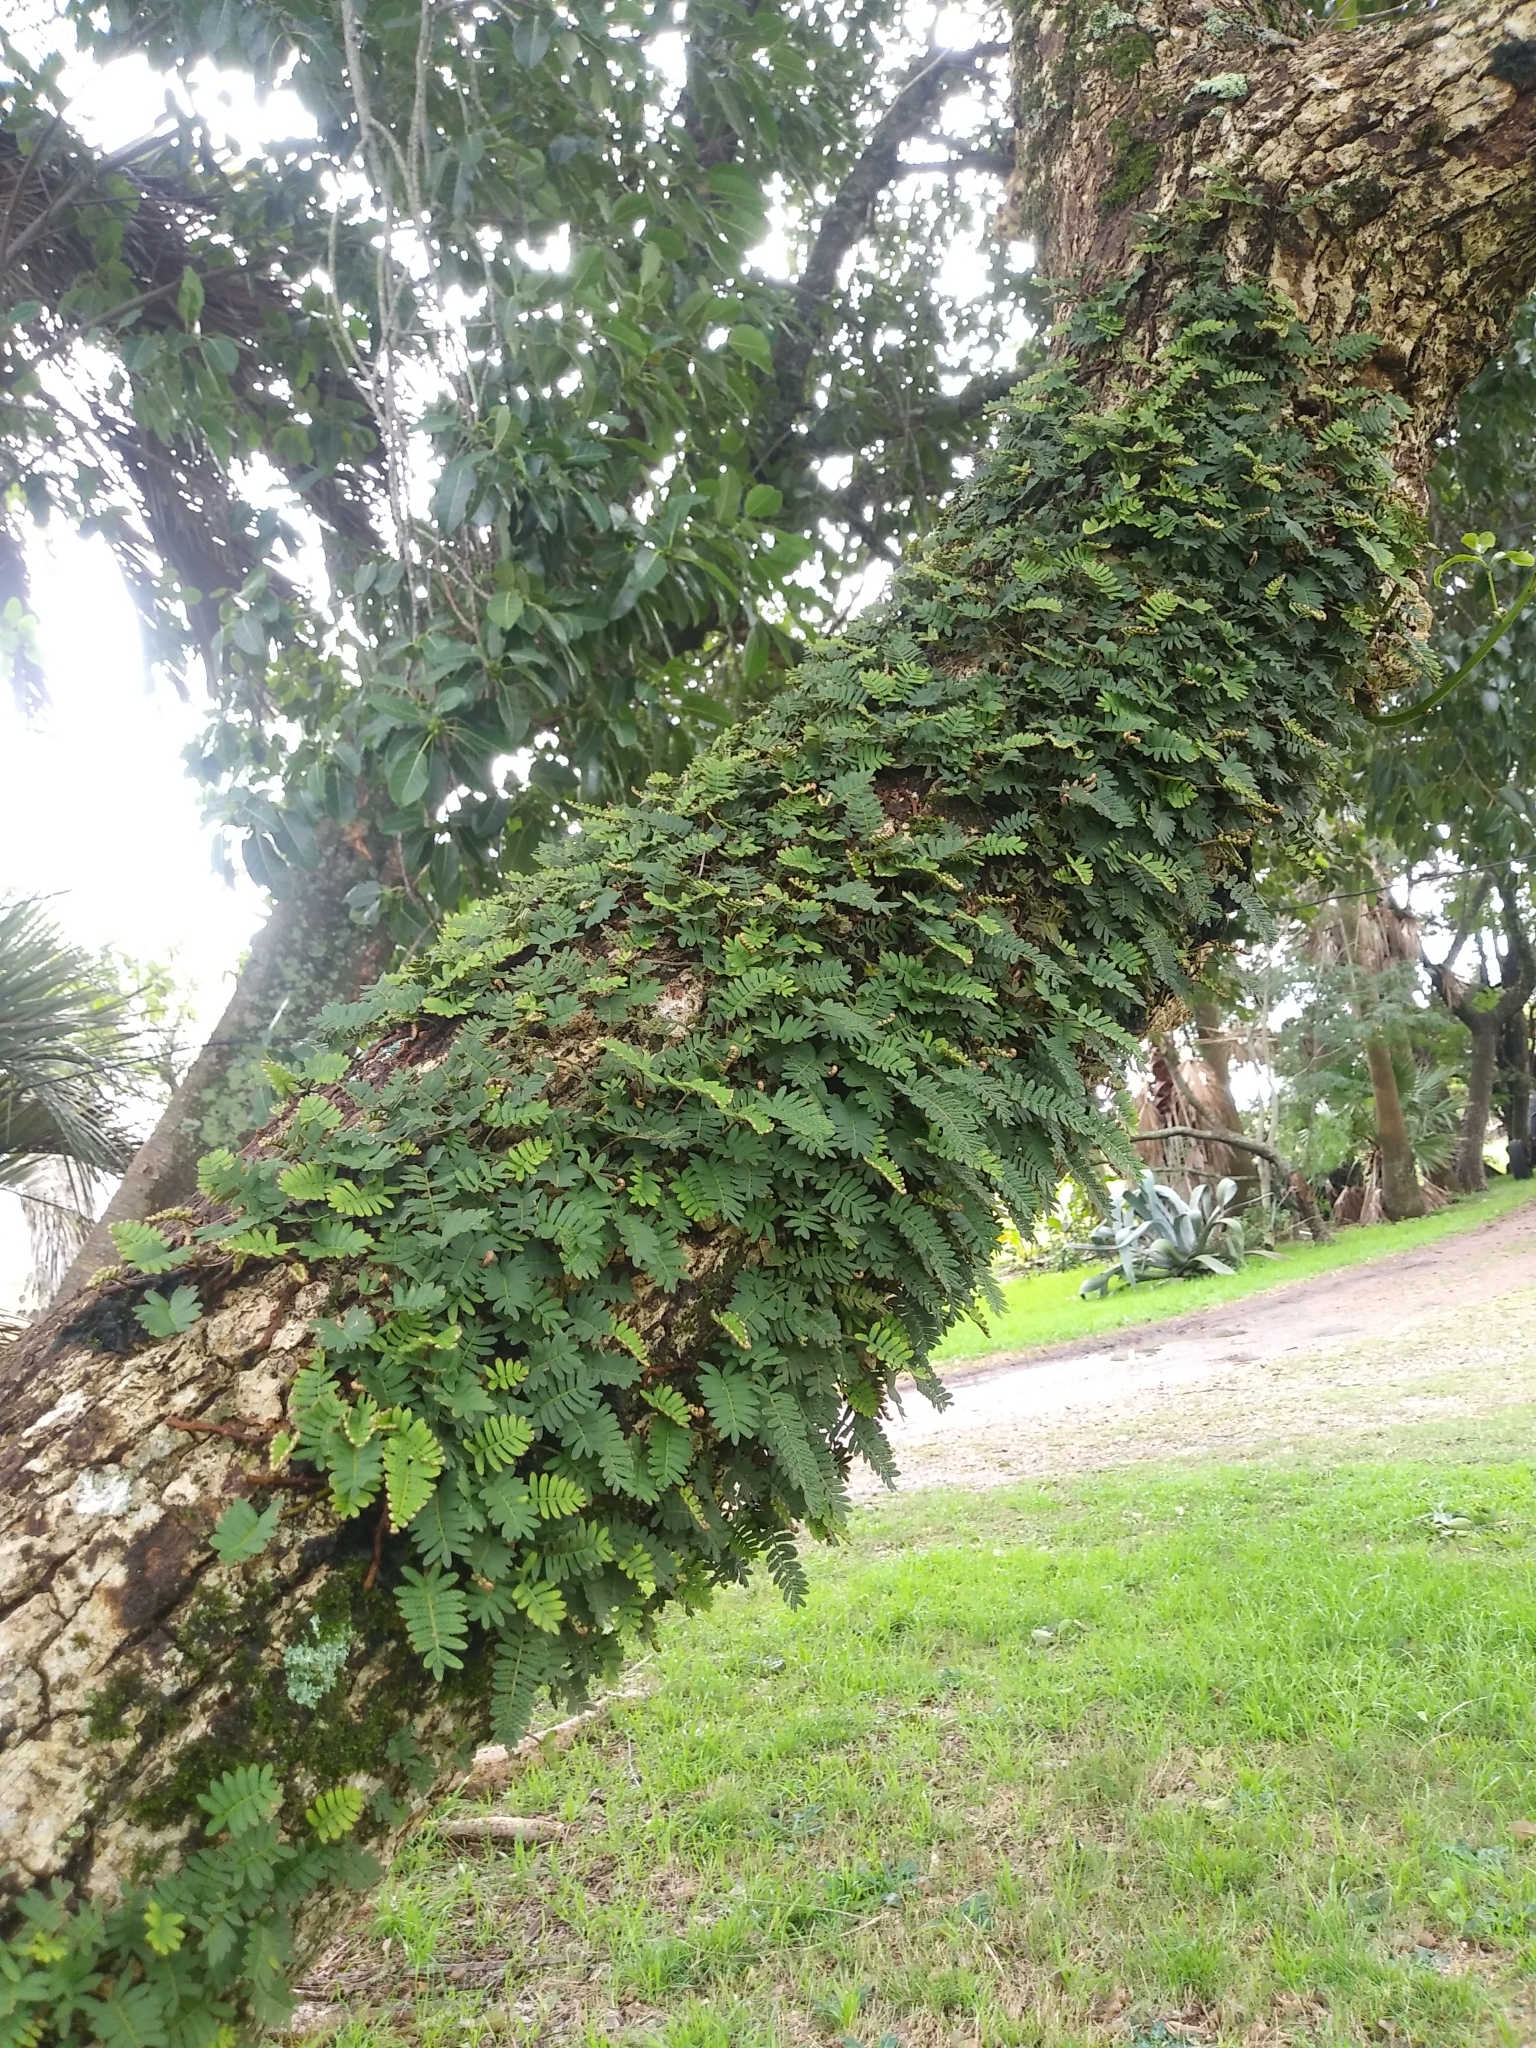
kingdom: Plantae
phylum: Tracheophyta
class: Polypodiopsida
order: Polypodiales
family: Polypodiaceae
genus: Pleopeltis
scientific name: Pleopeltis minima
